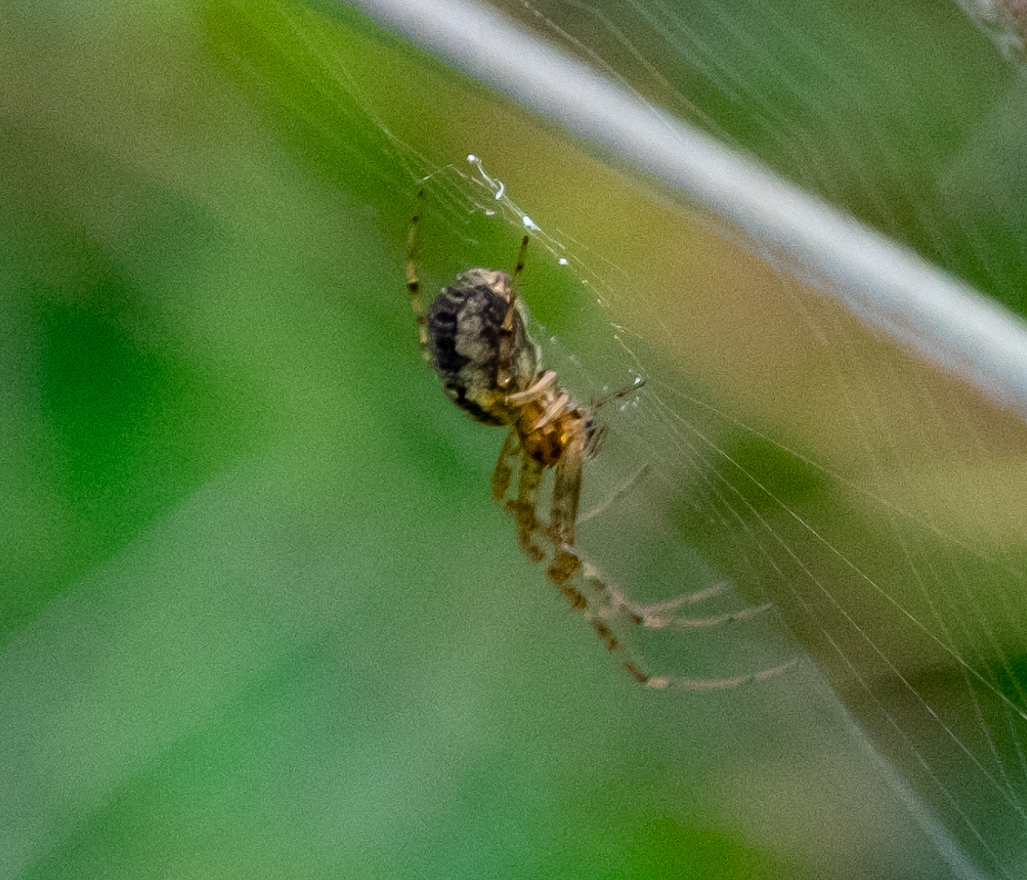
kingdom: Animalia
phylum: Arthropoda
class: Arachnida
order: Araneae
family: Tetragnathidae
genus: Metellina
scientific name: Metellina segmentata
